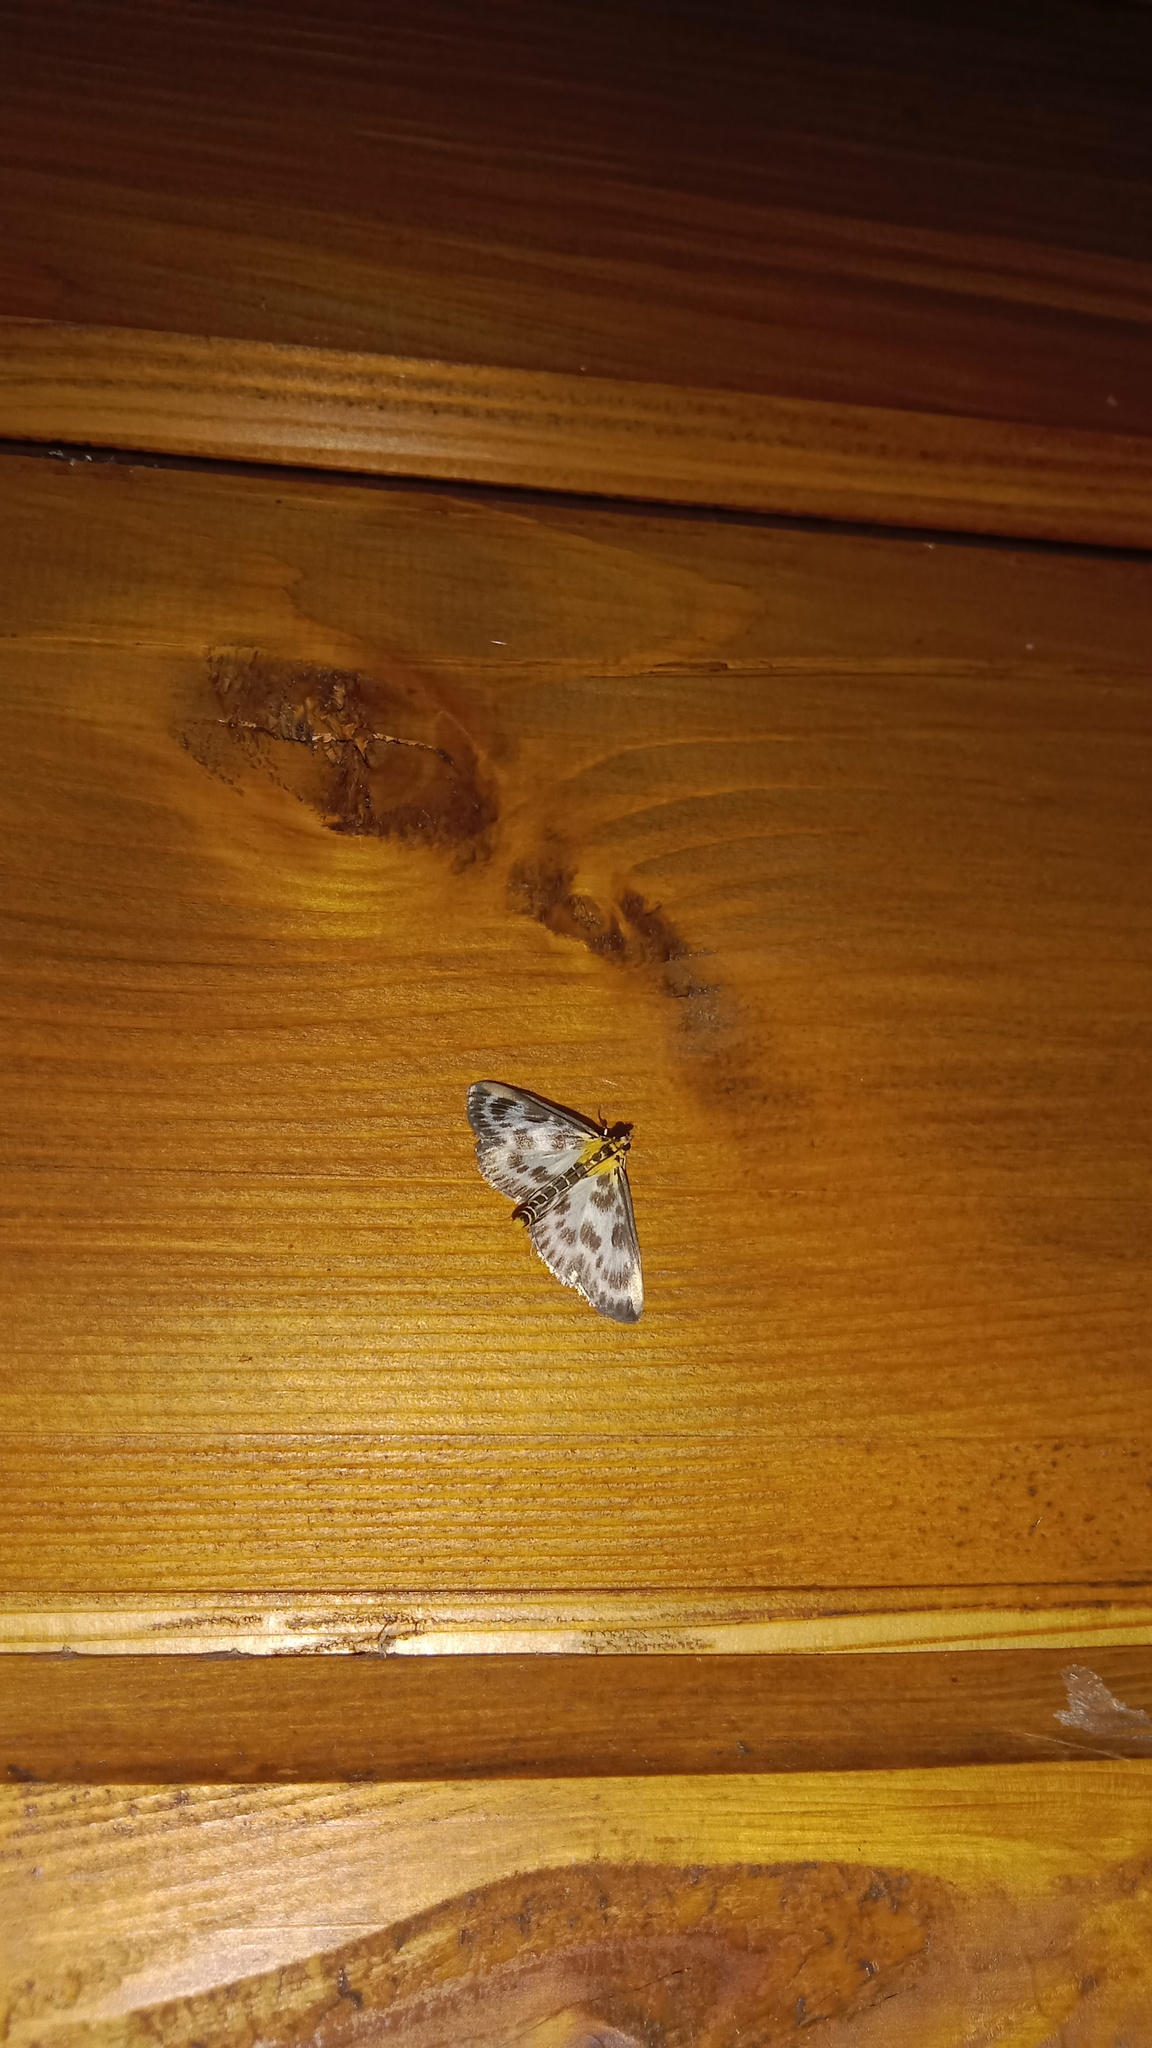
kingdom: Animalia
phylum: Arthropoda
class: Insecta
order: Lepidoptera
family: Crambidae
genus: Anania
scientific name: Anania hortulata
